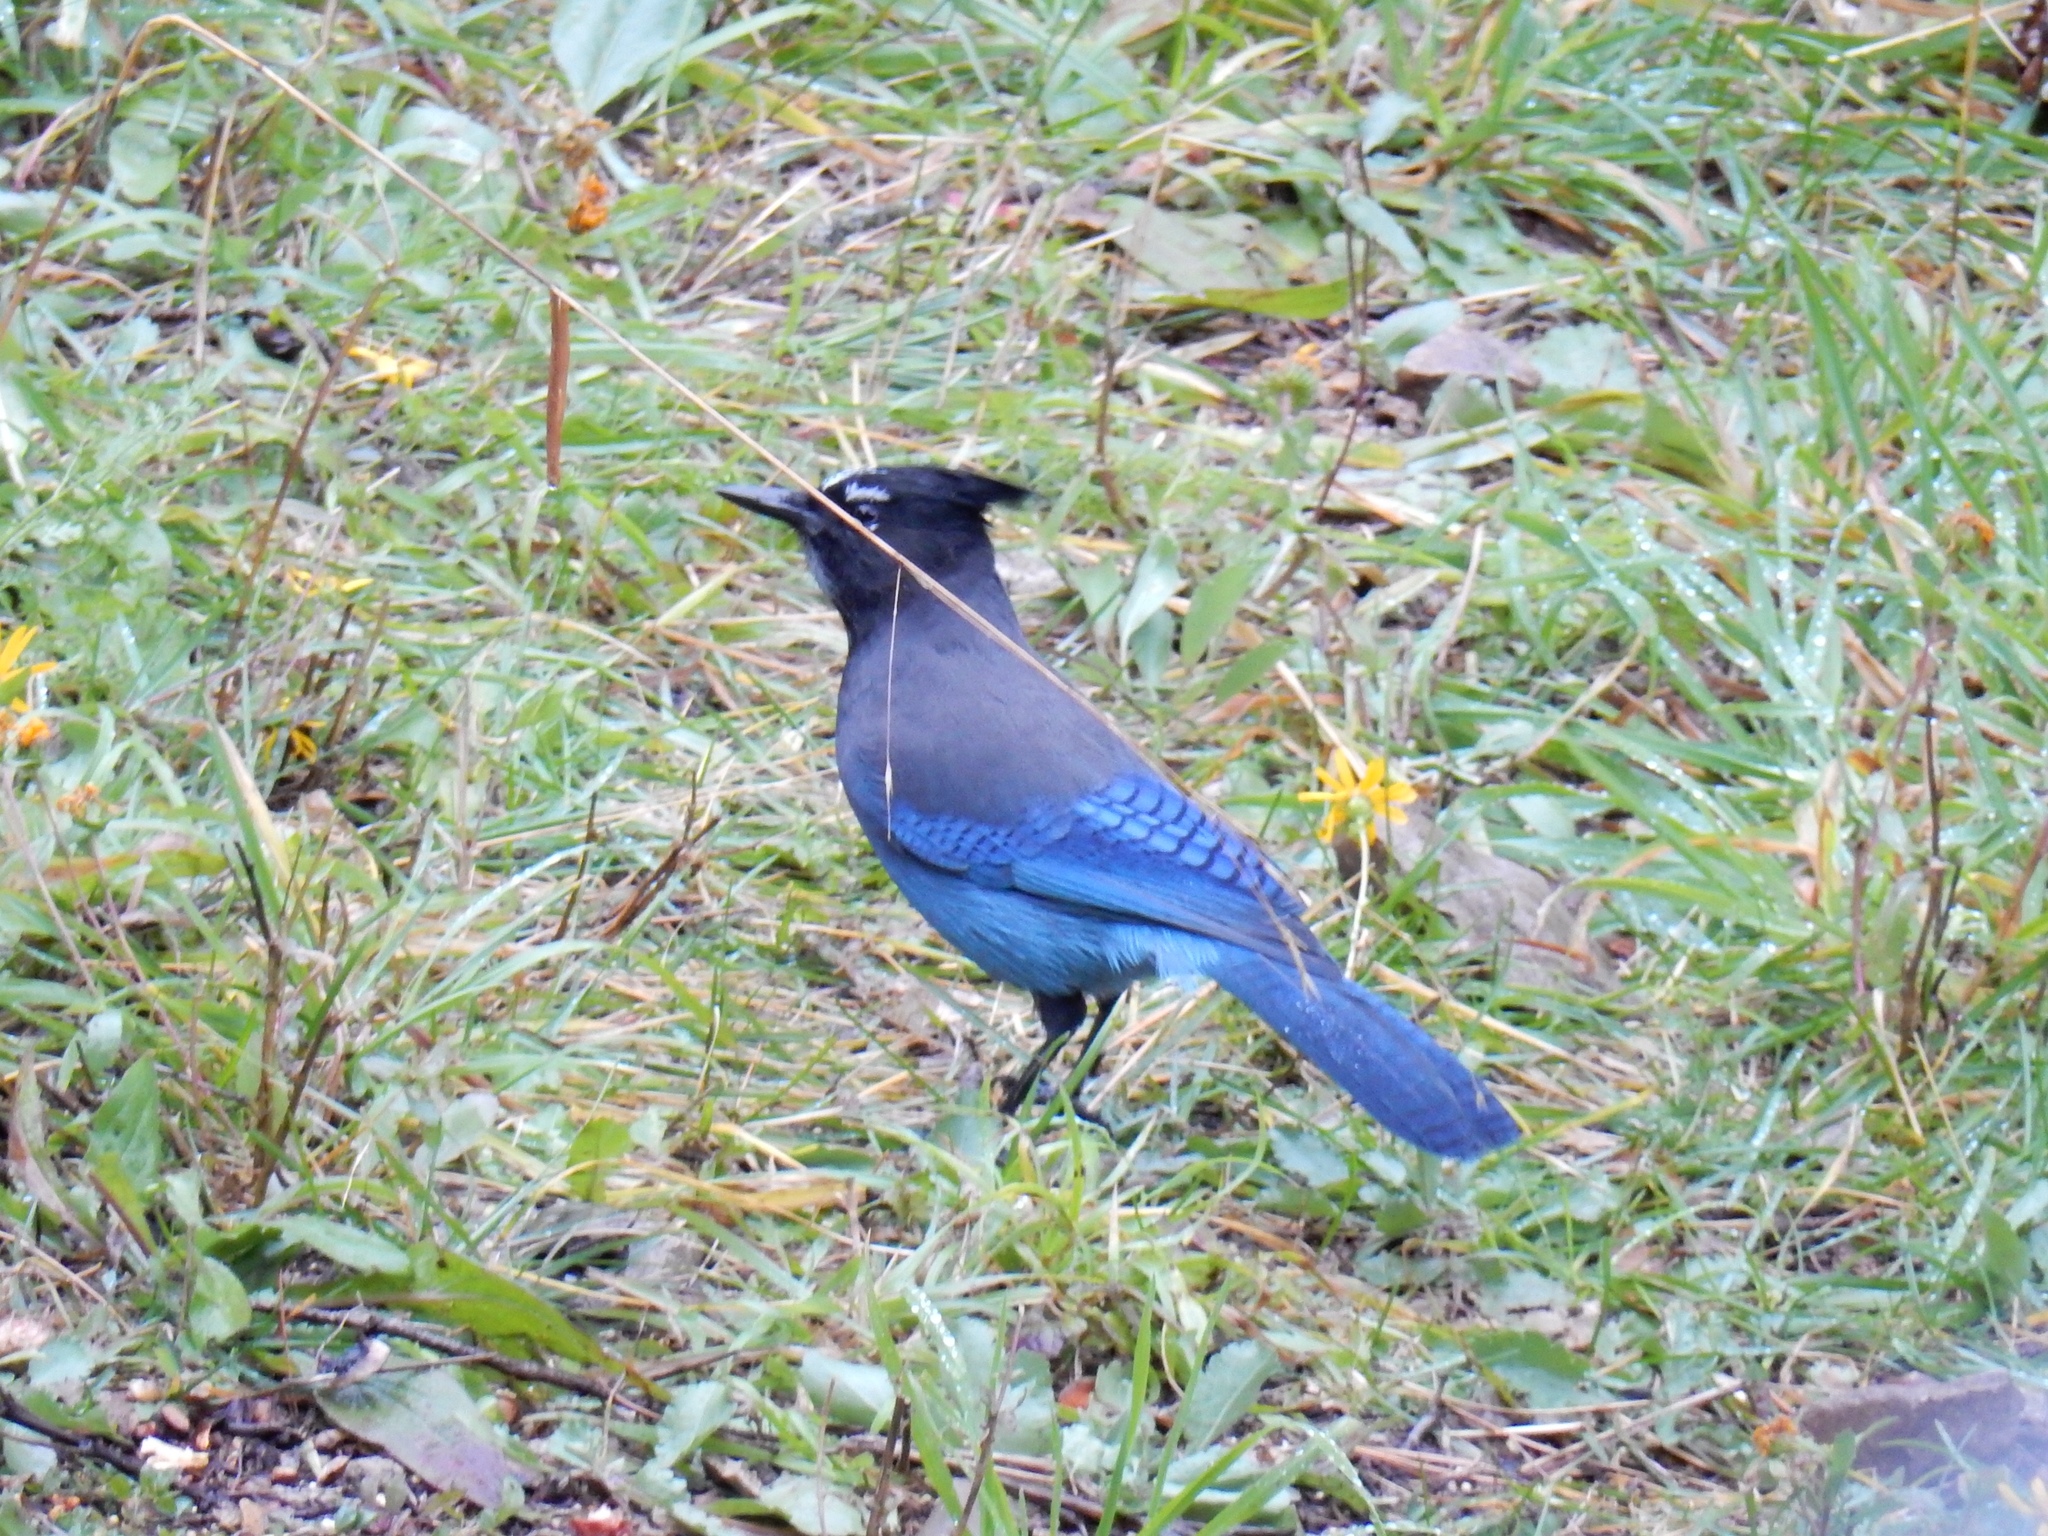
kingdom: Animalia
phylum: Chordata
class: Aves
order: Passeriformes
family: Corvidae
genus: Cyanocitta
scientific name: Cyanocitta stelleri
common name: Steller's jay
